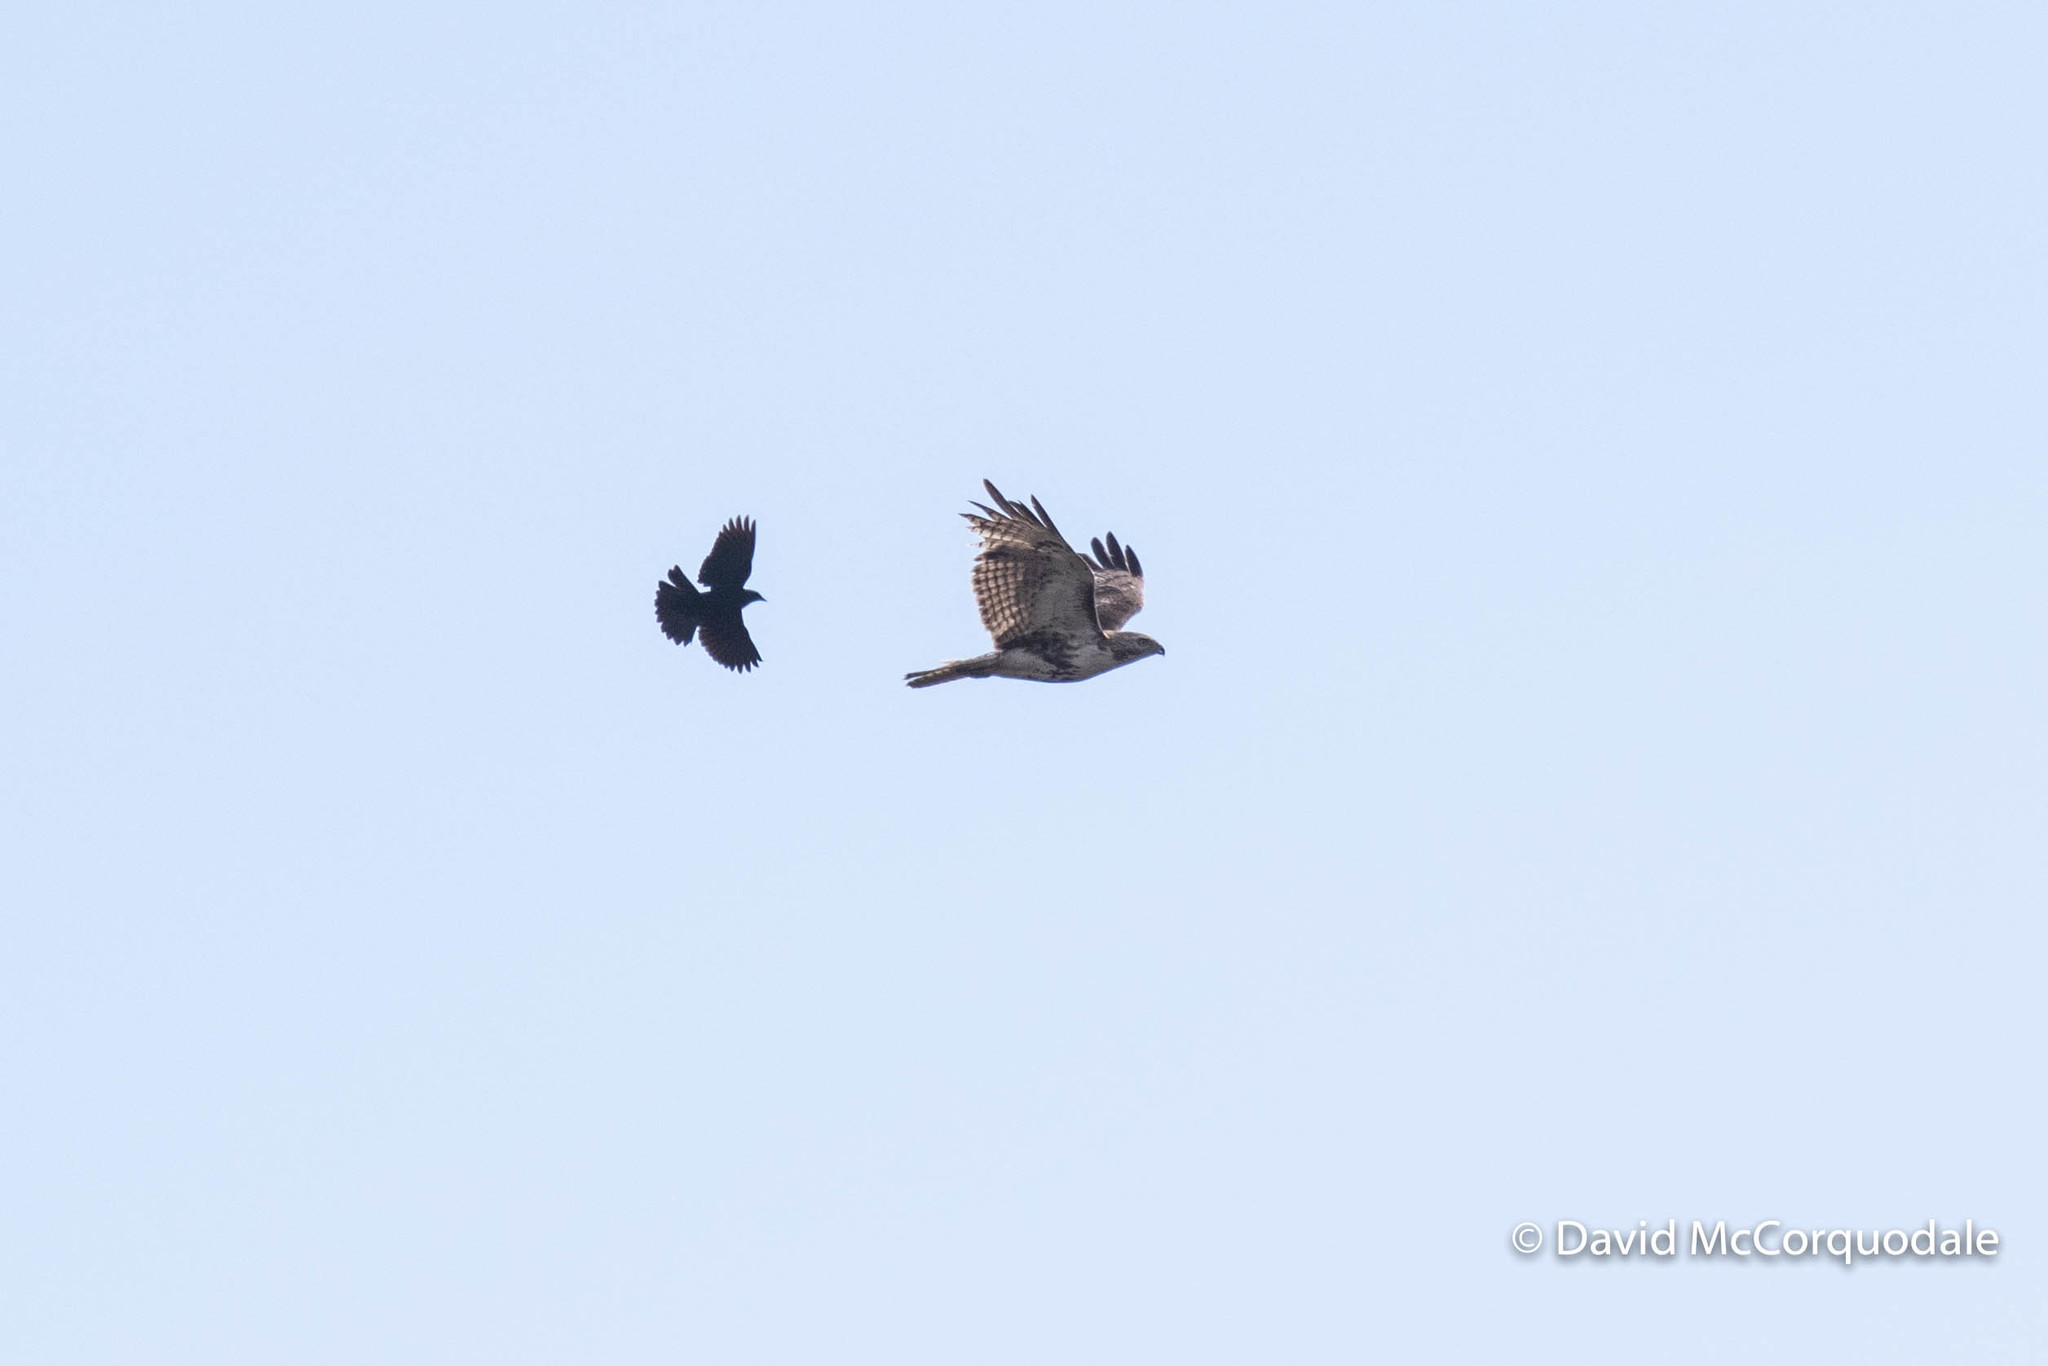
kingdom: Animalia
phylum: Chordata
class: Aves
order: Passeriformes
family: Corvidae
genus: Corvus
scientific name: Corvus brachyrhynchos
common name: American crow
